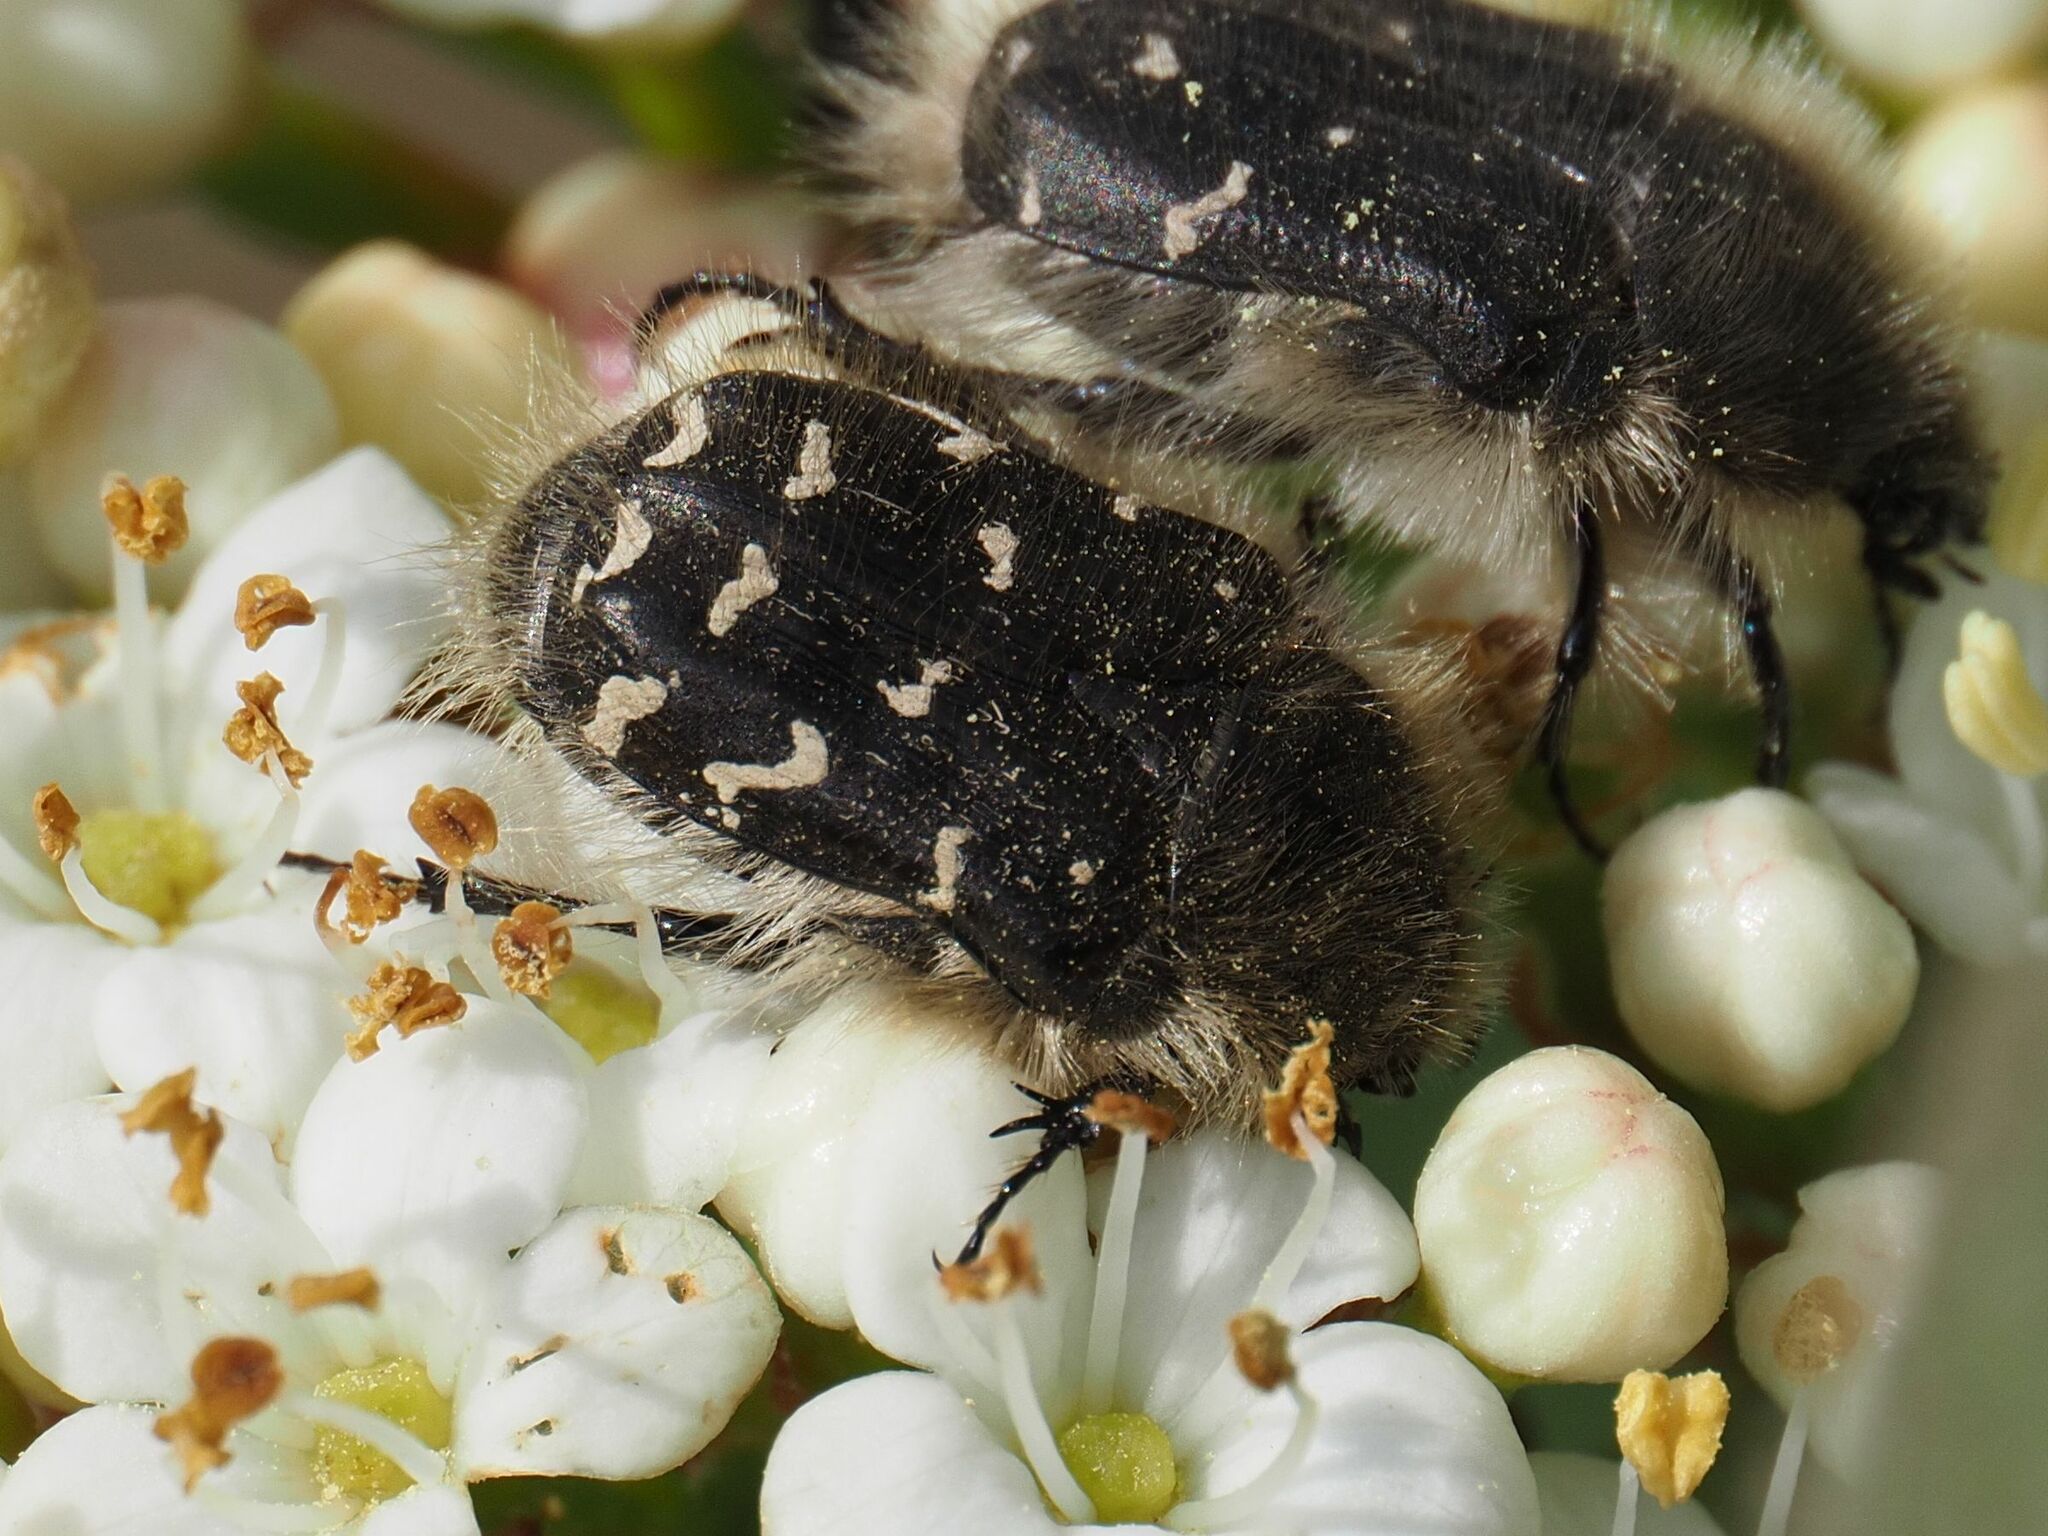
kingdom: Animalia
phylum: Arthropoda
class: Insecta
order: Coleoptera
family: Scarabaeidae
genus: Tropinota
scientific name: Tropinota hirta
